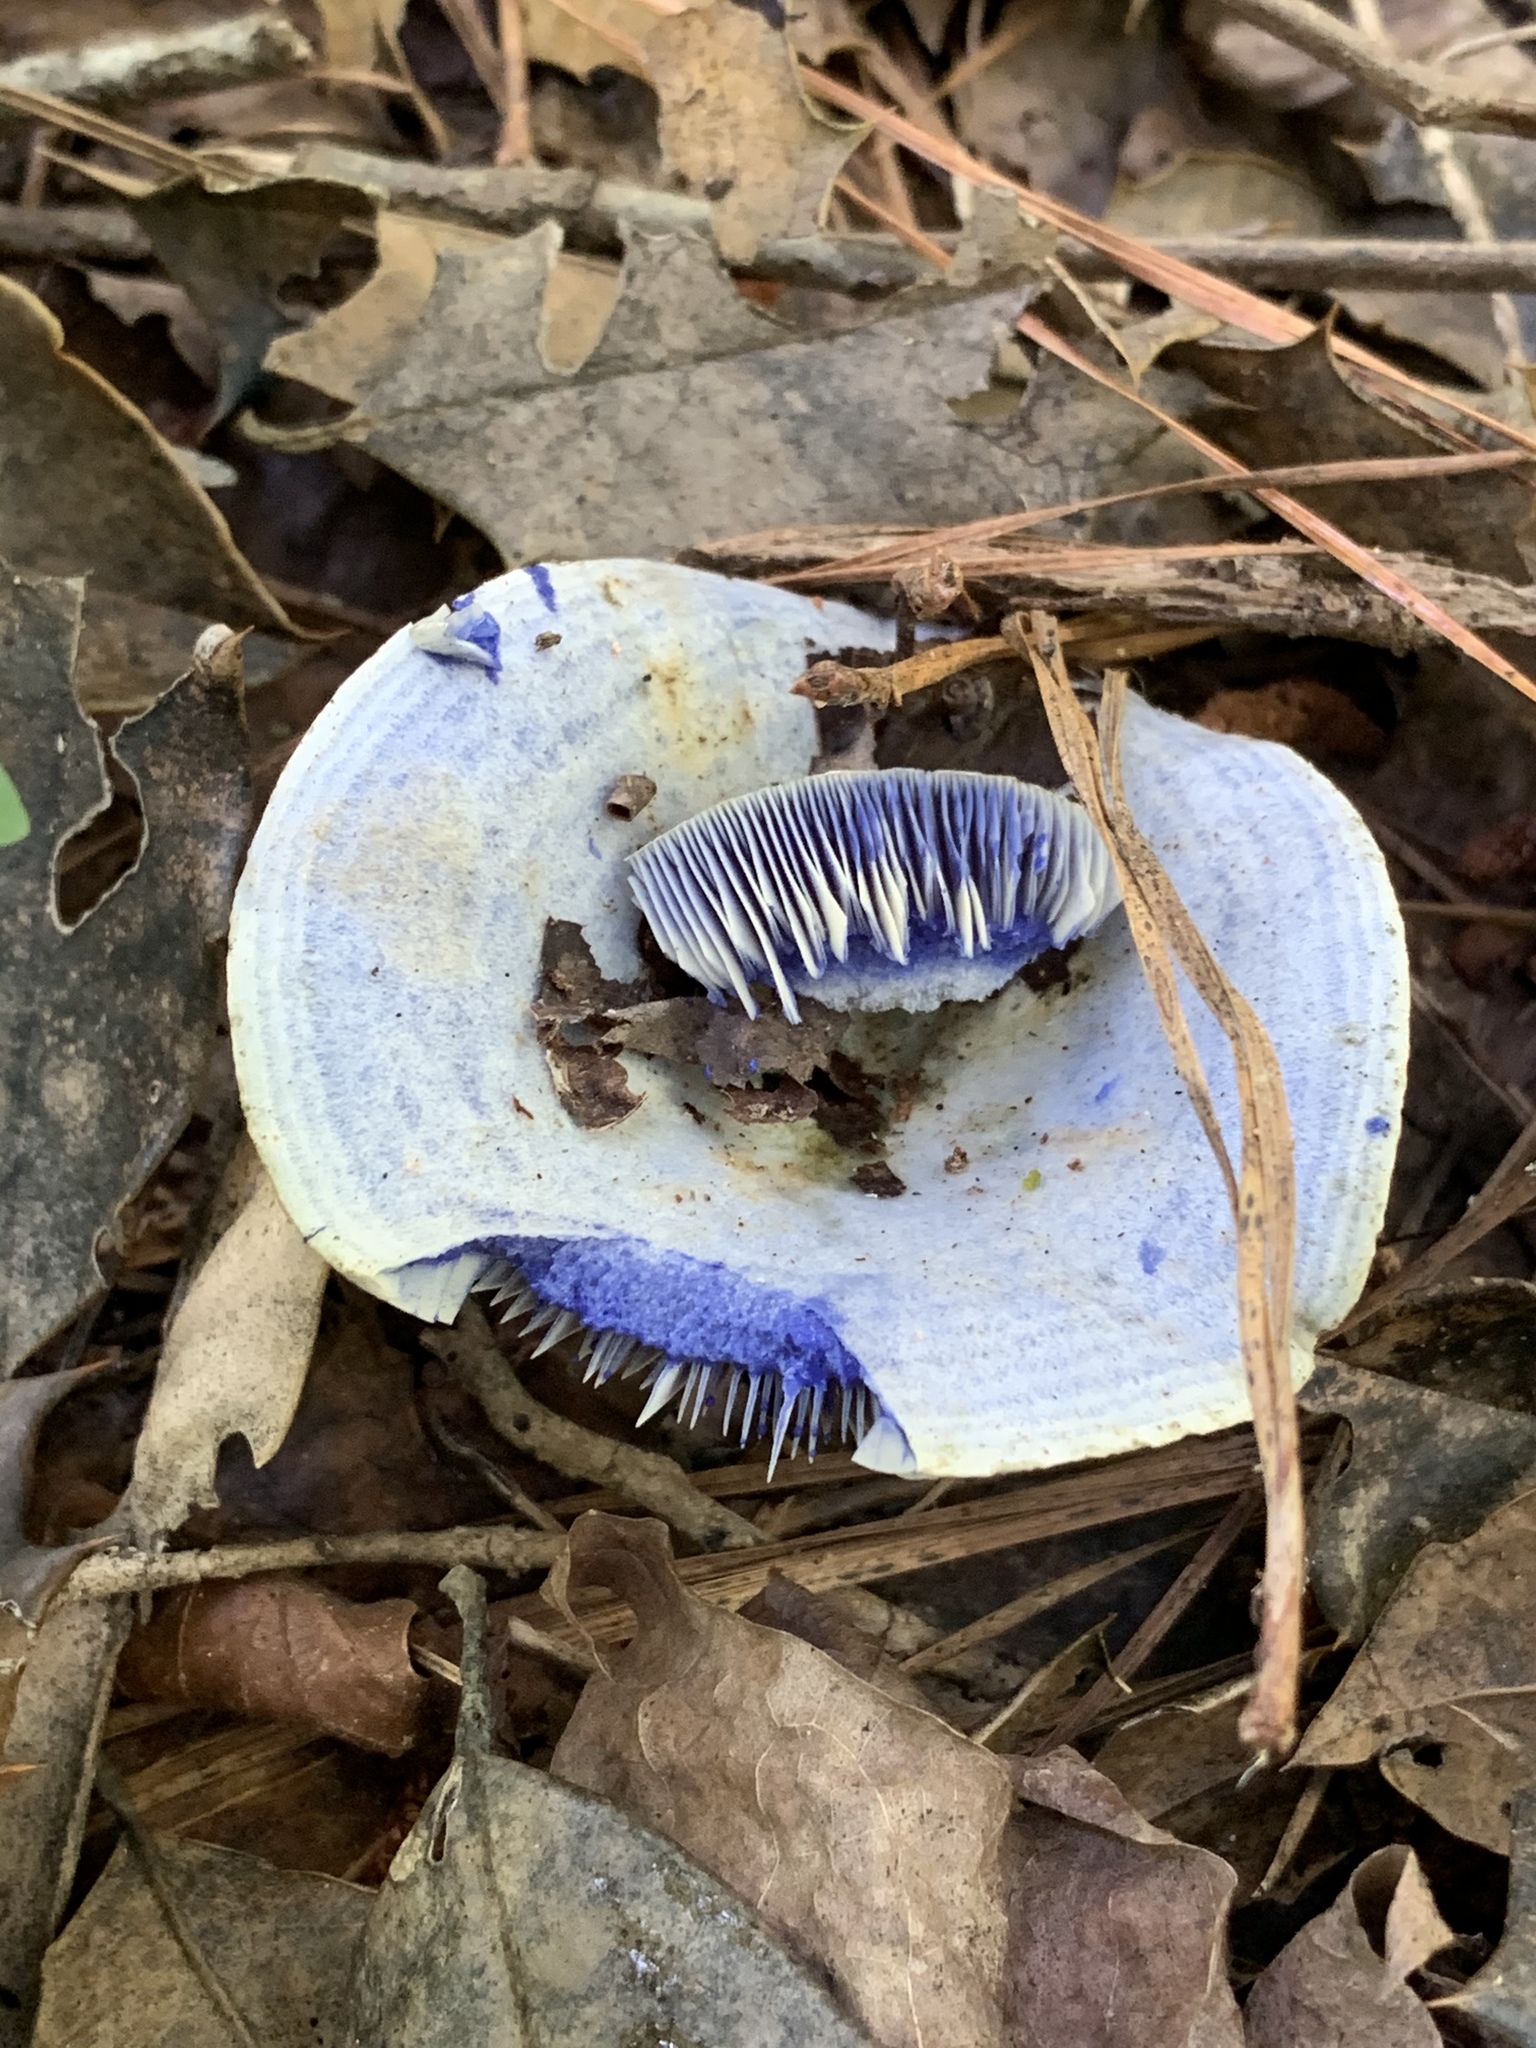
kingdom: Fungi
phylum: Basidiomycota
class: Agaricomycetes
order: Russulales
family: Russulaceae
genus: Lactarius
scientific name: Lactarius indigo
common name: Indigo milk cap
